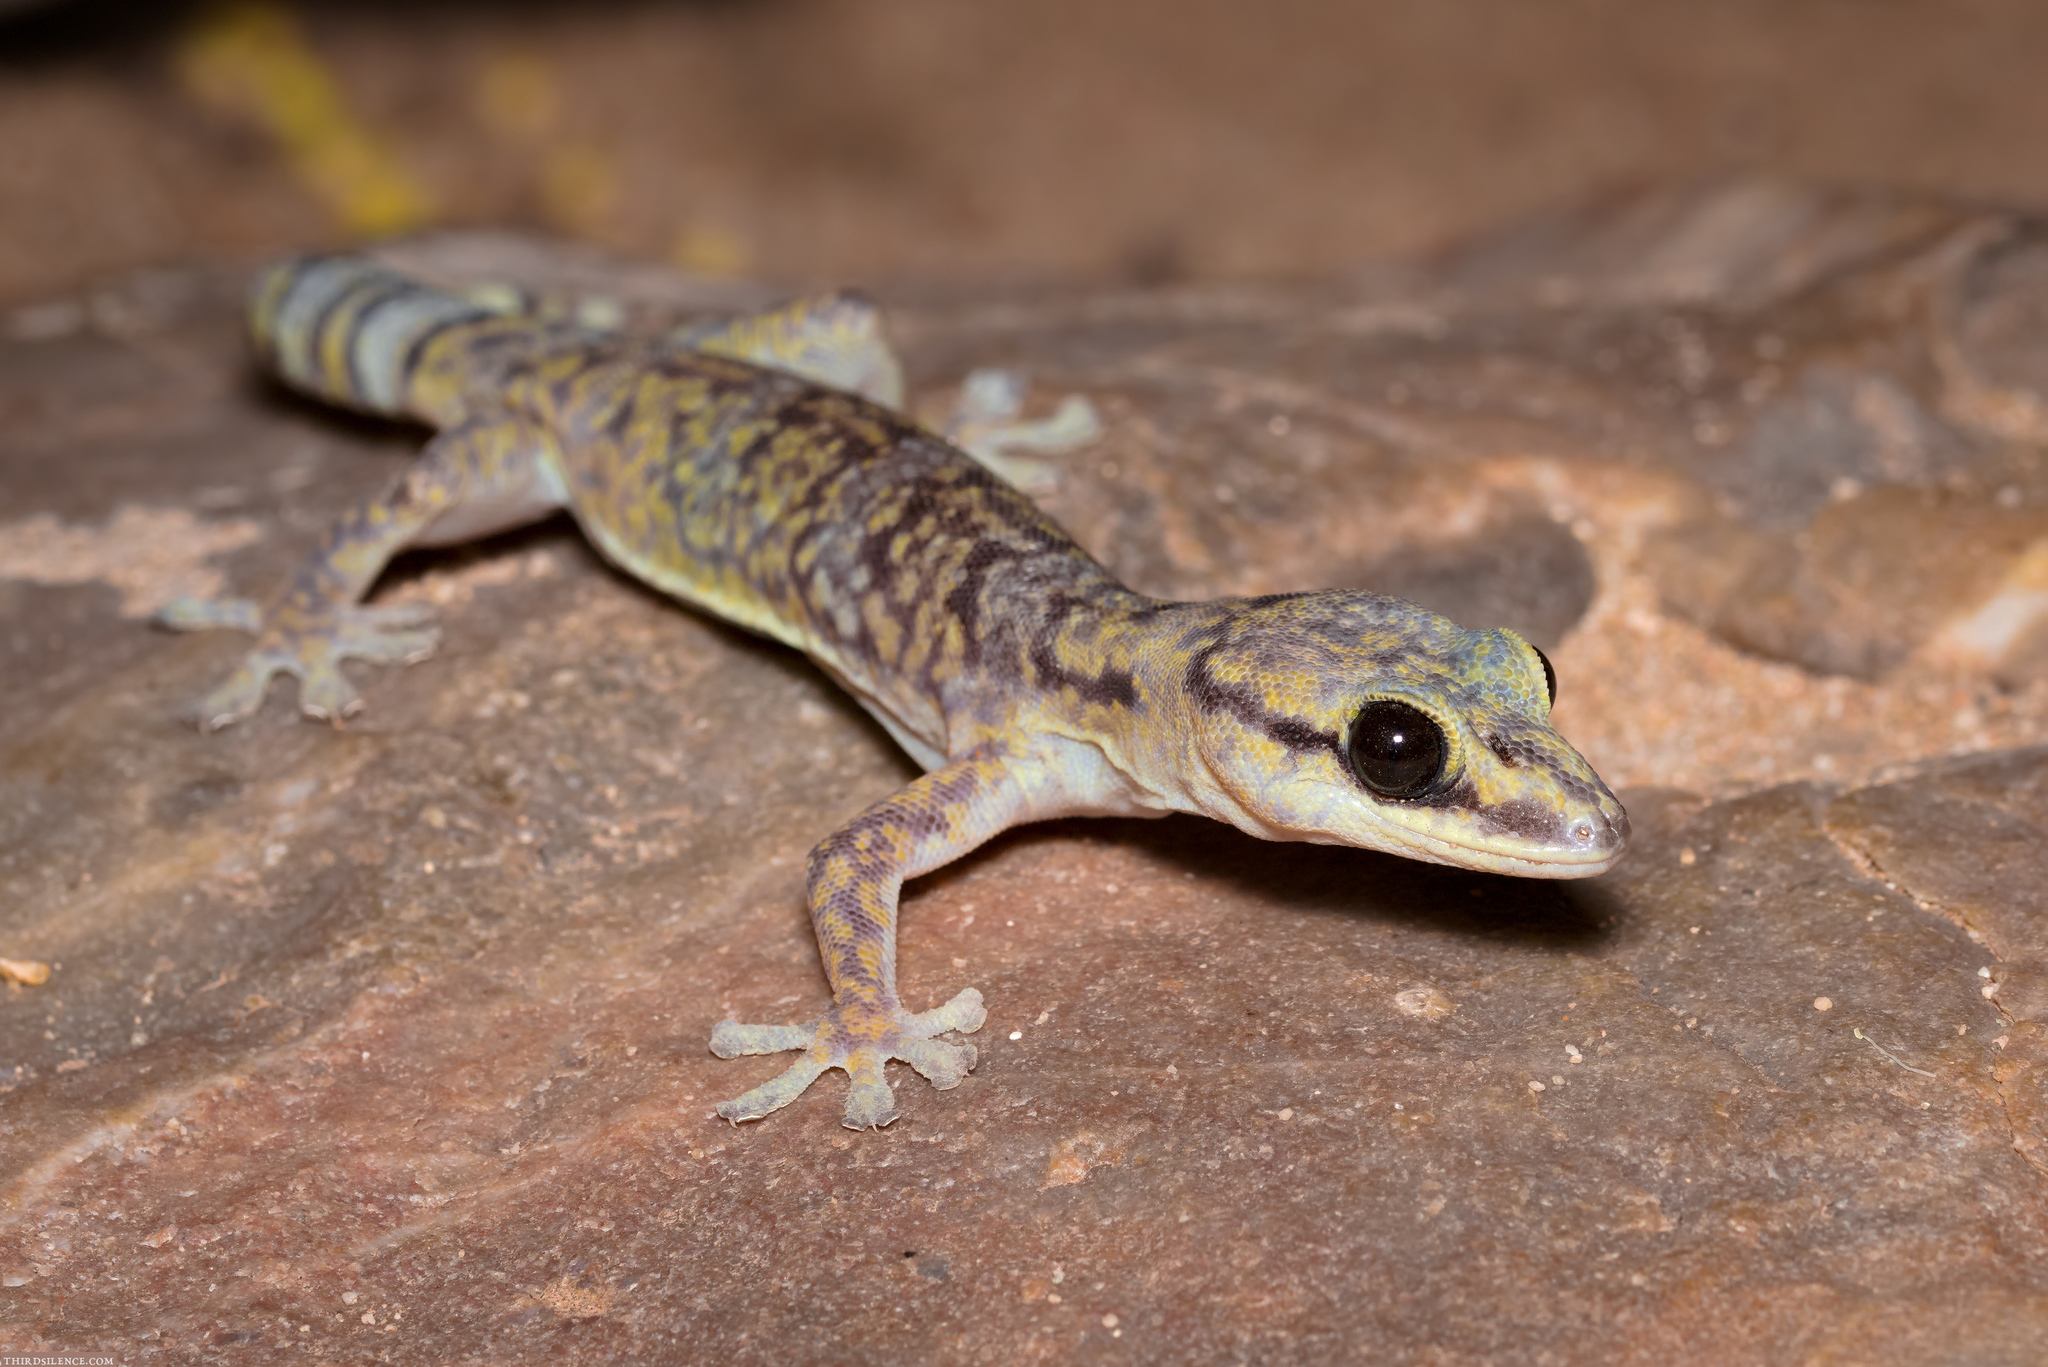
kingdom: Animalia
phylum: Chordata
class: Squamata
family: Diplodactylidae
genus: Oedura
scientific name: Oedura cincta
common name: Inland marbled velvet gecko
